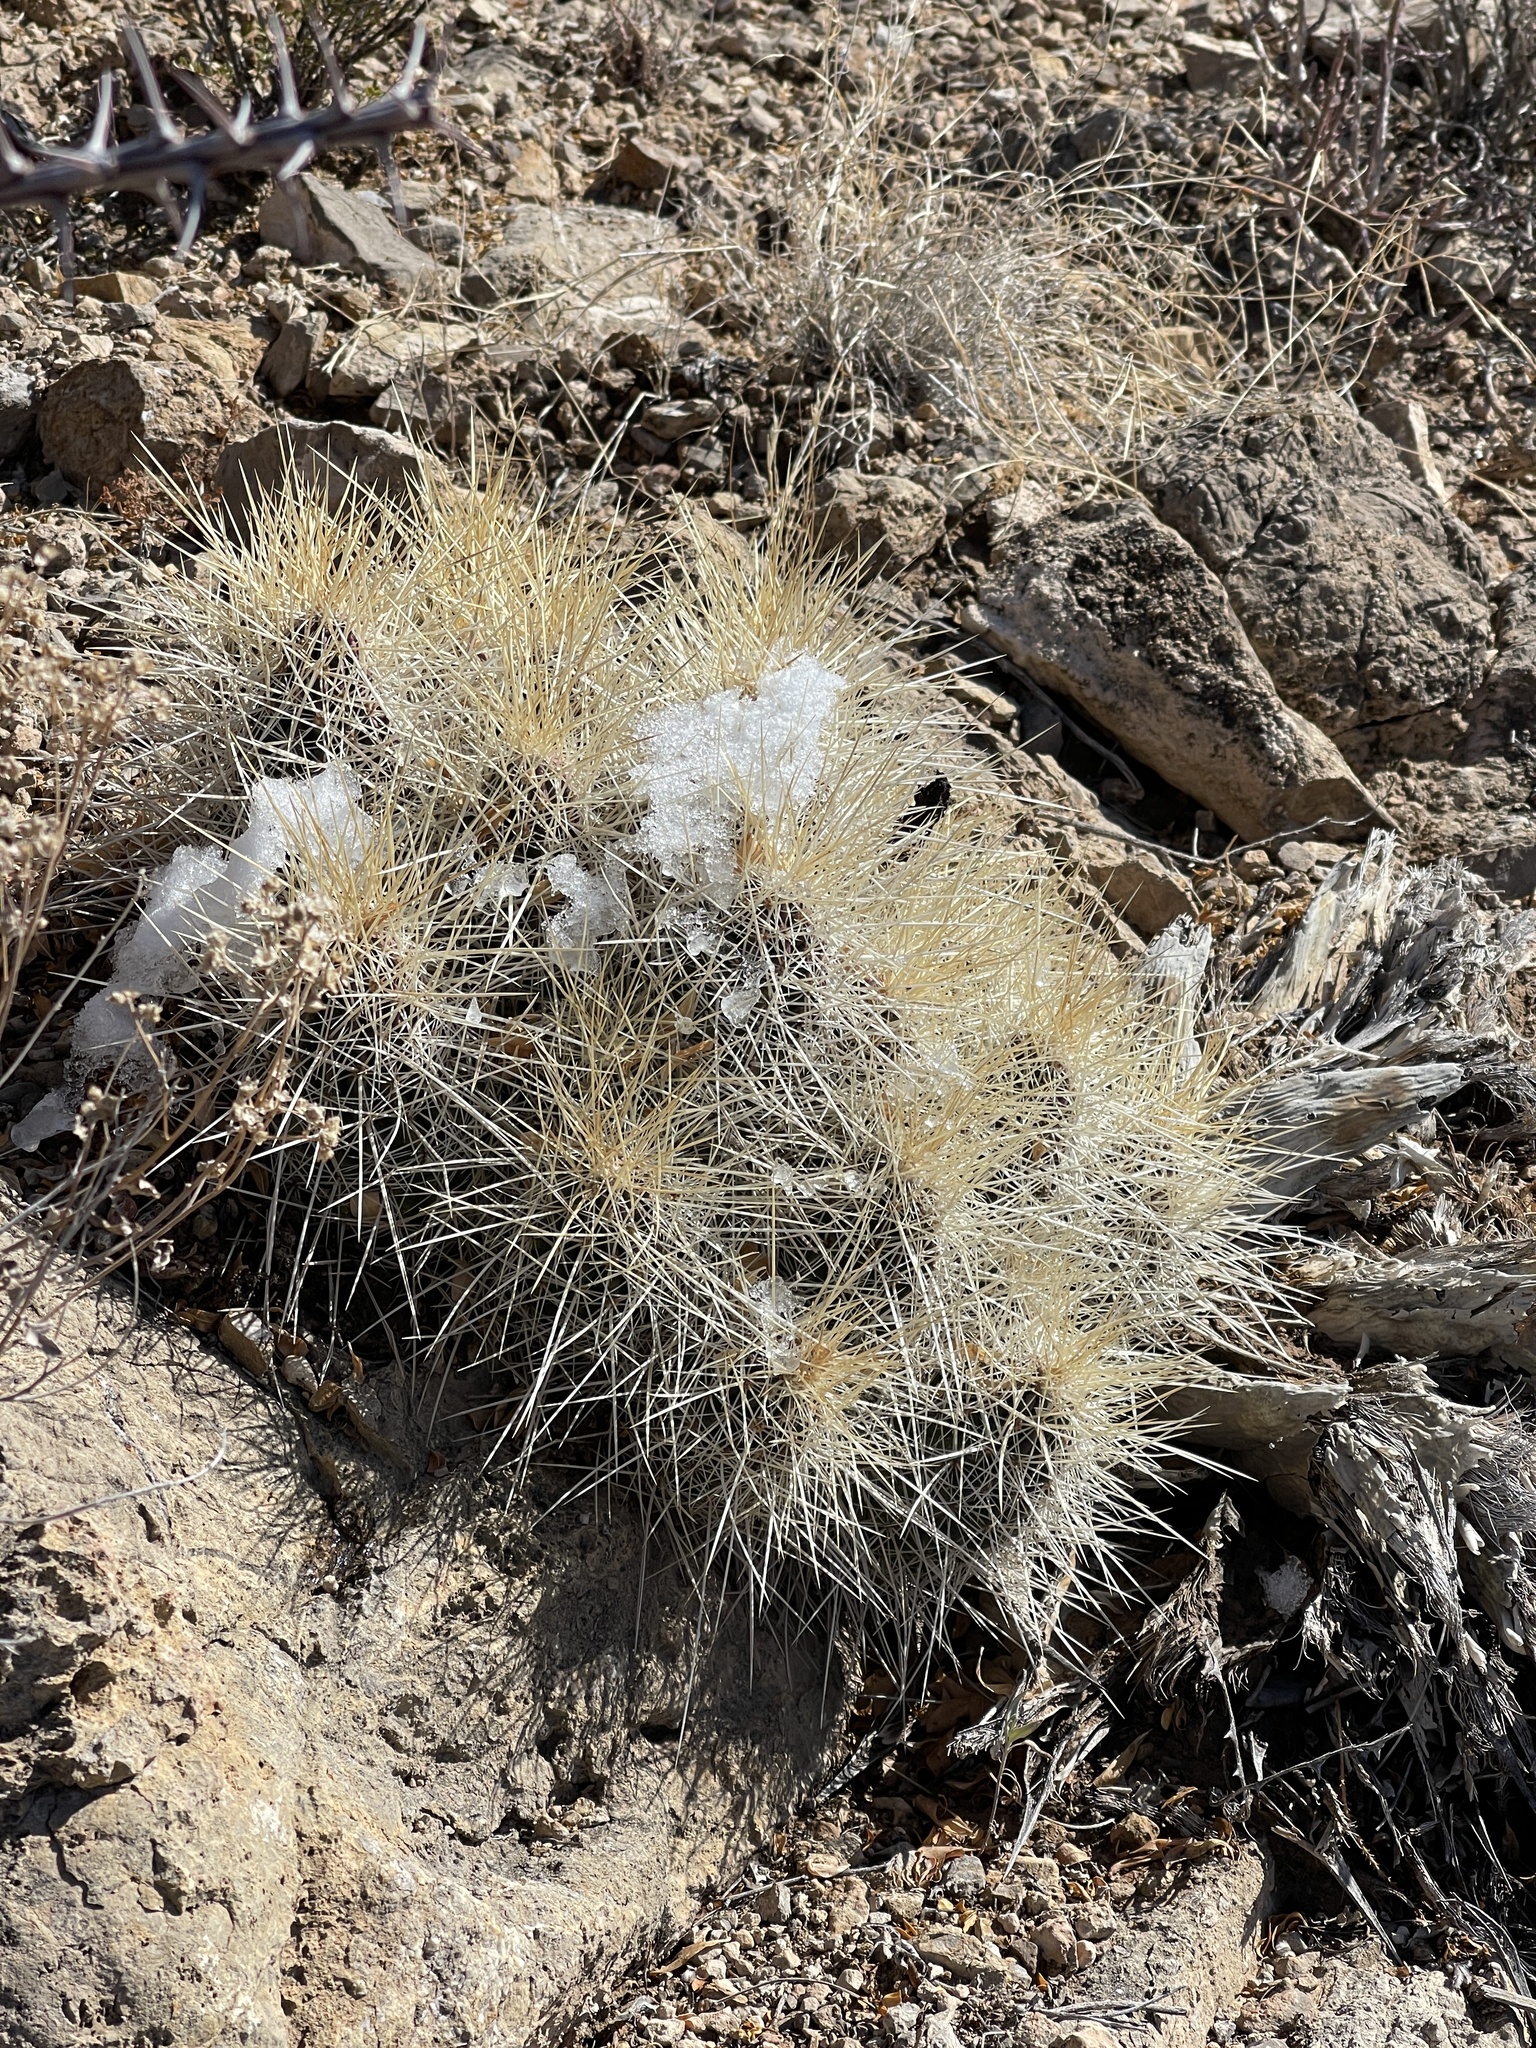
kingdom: Plantae
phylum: Tracheophyta
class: Magnoliopsida
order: Caryophyllales
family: Cactaceae
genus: Echinocereus
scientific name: Echinocereus stramineus
